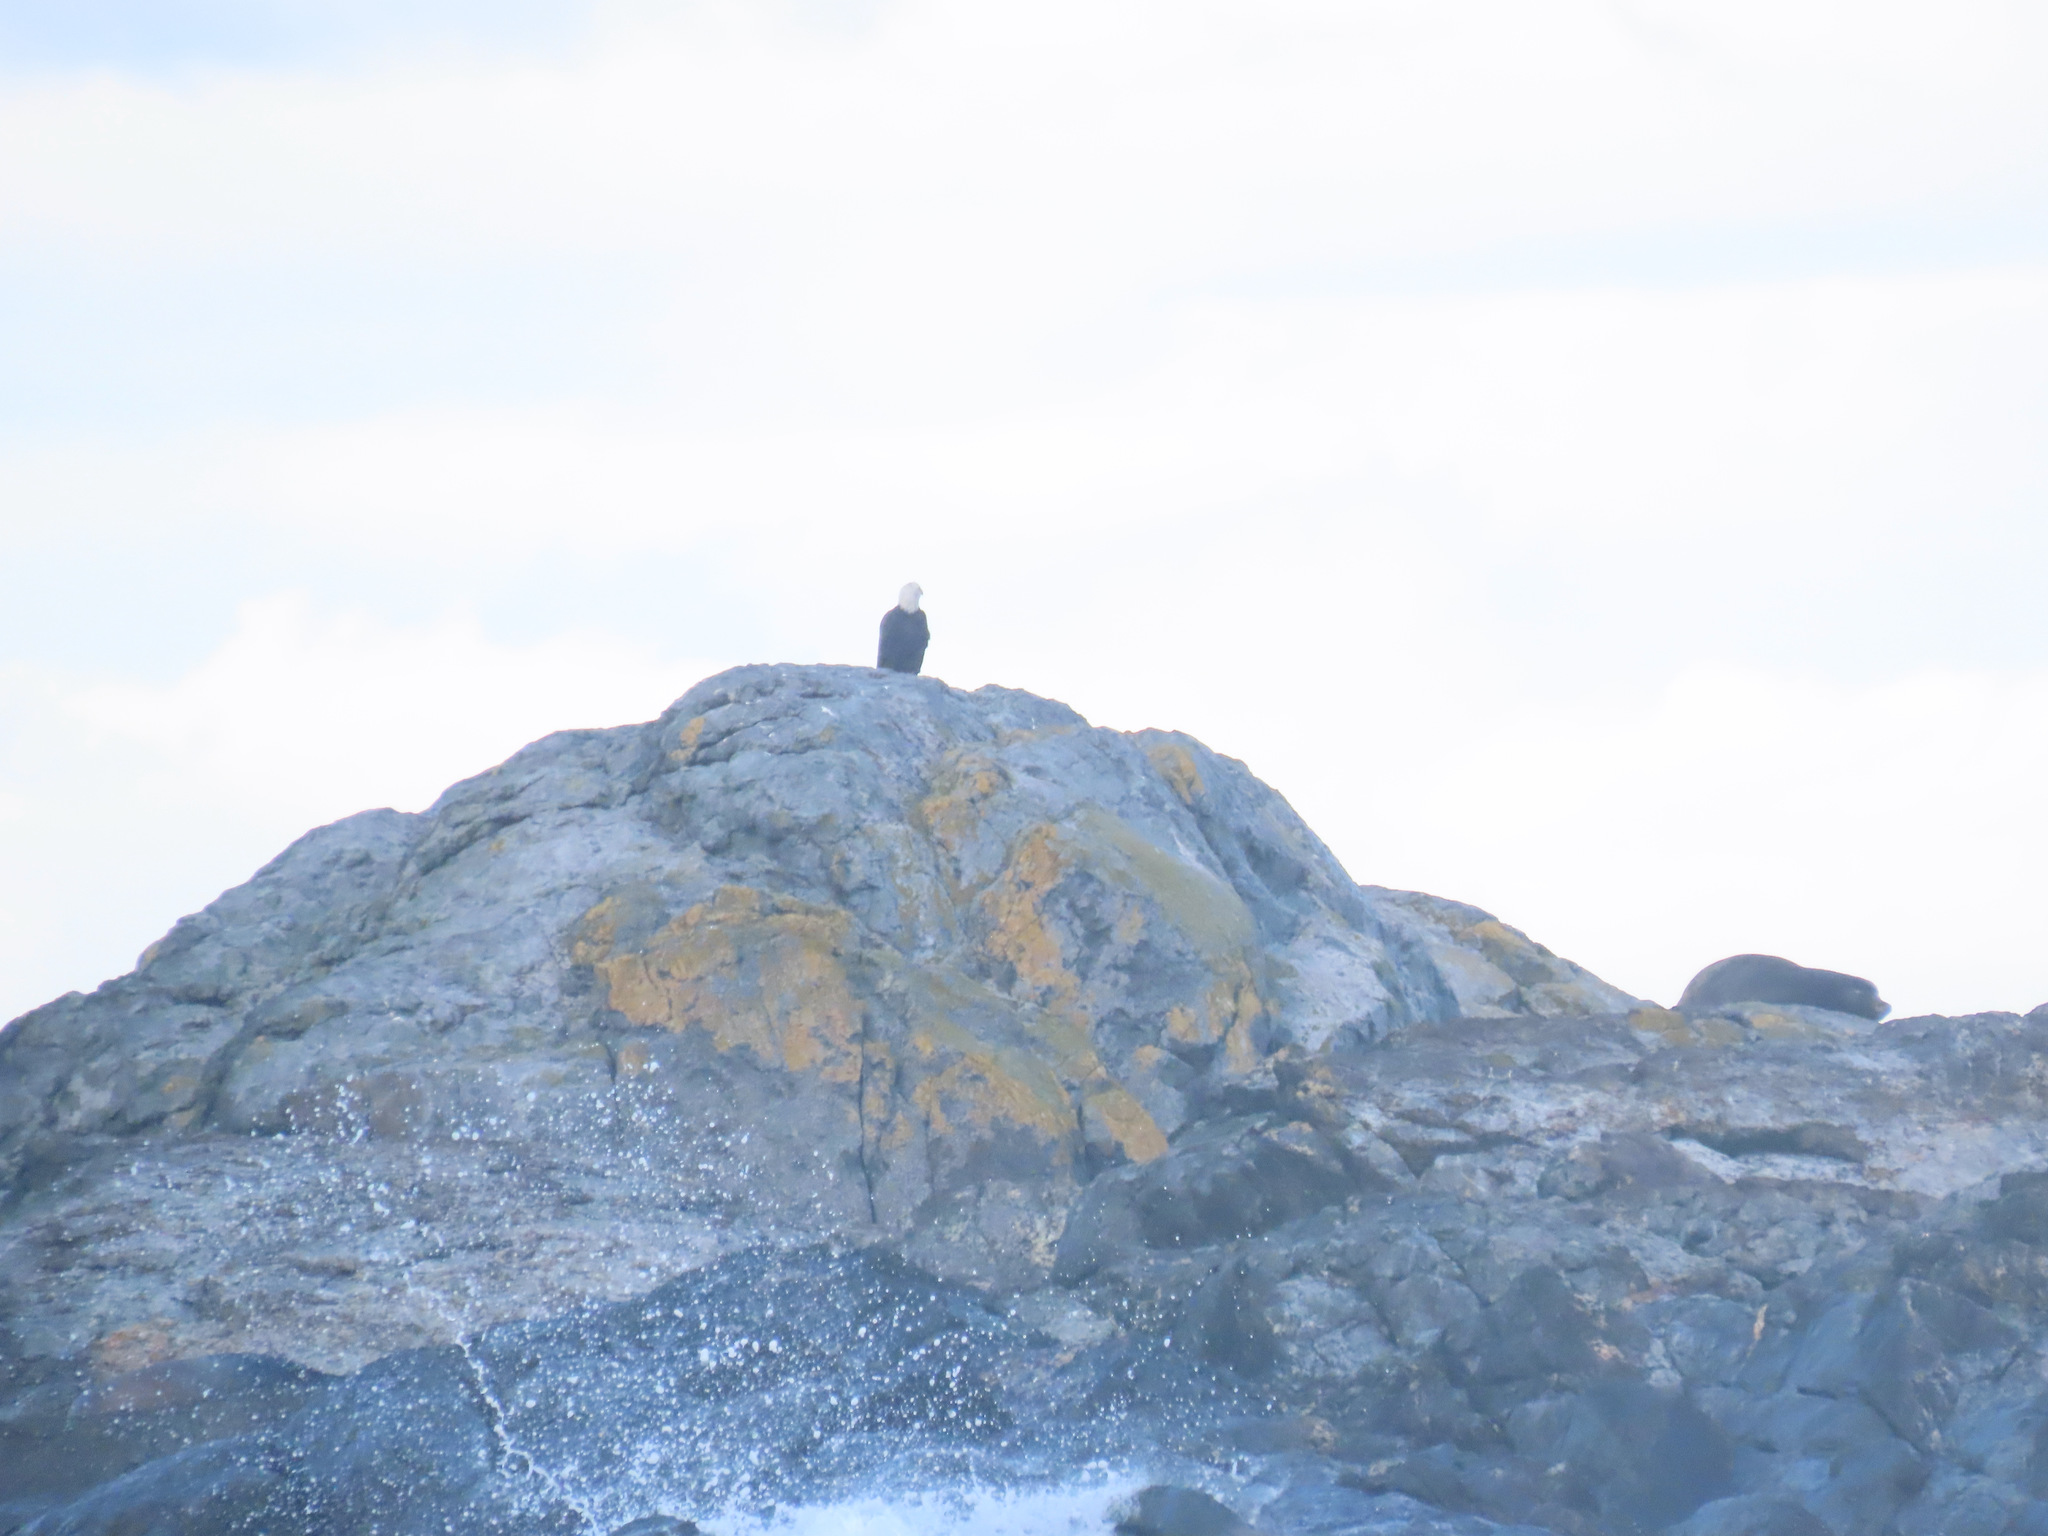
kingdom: Animalia
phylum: Chordata
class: Aves
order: Accipitriformes
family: Accipitridae
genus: Haliaeetus
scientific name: Haliaeetus leucocephalus
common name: Bald eagle
